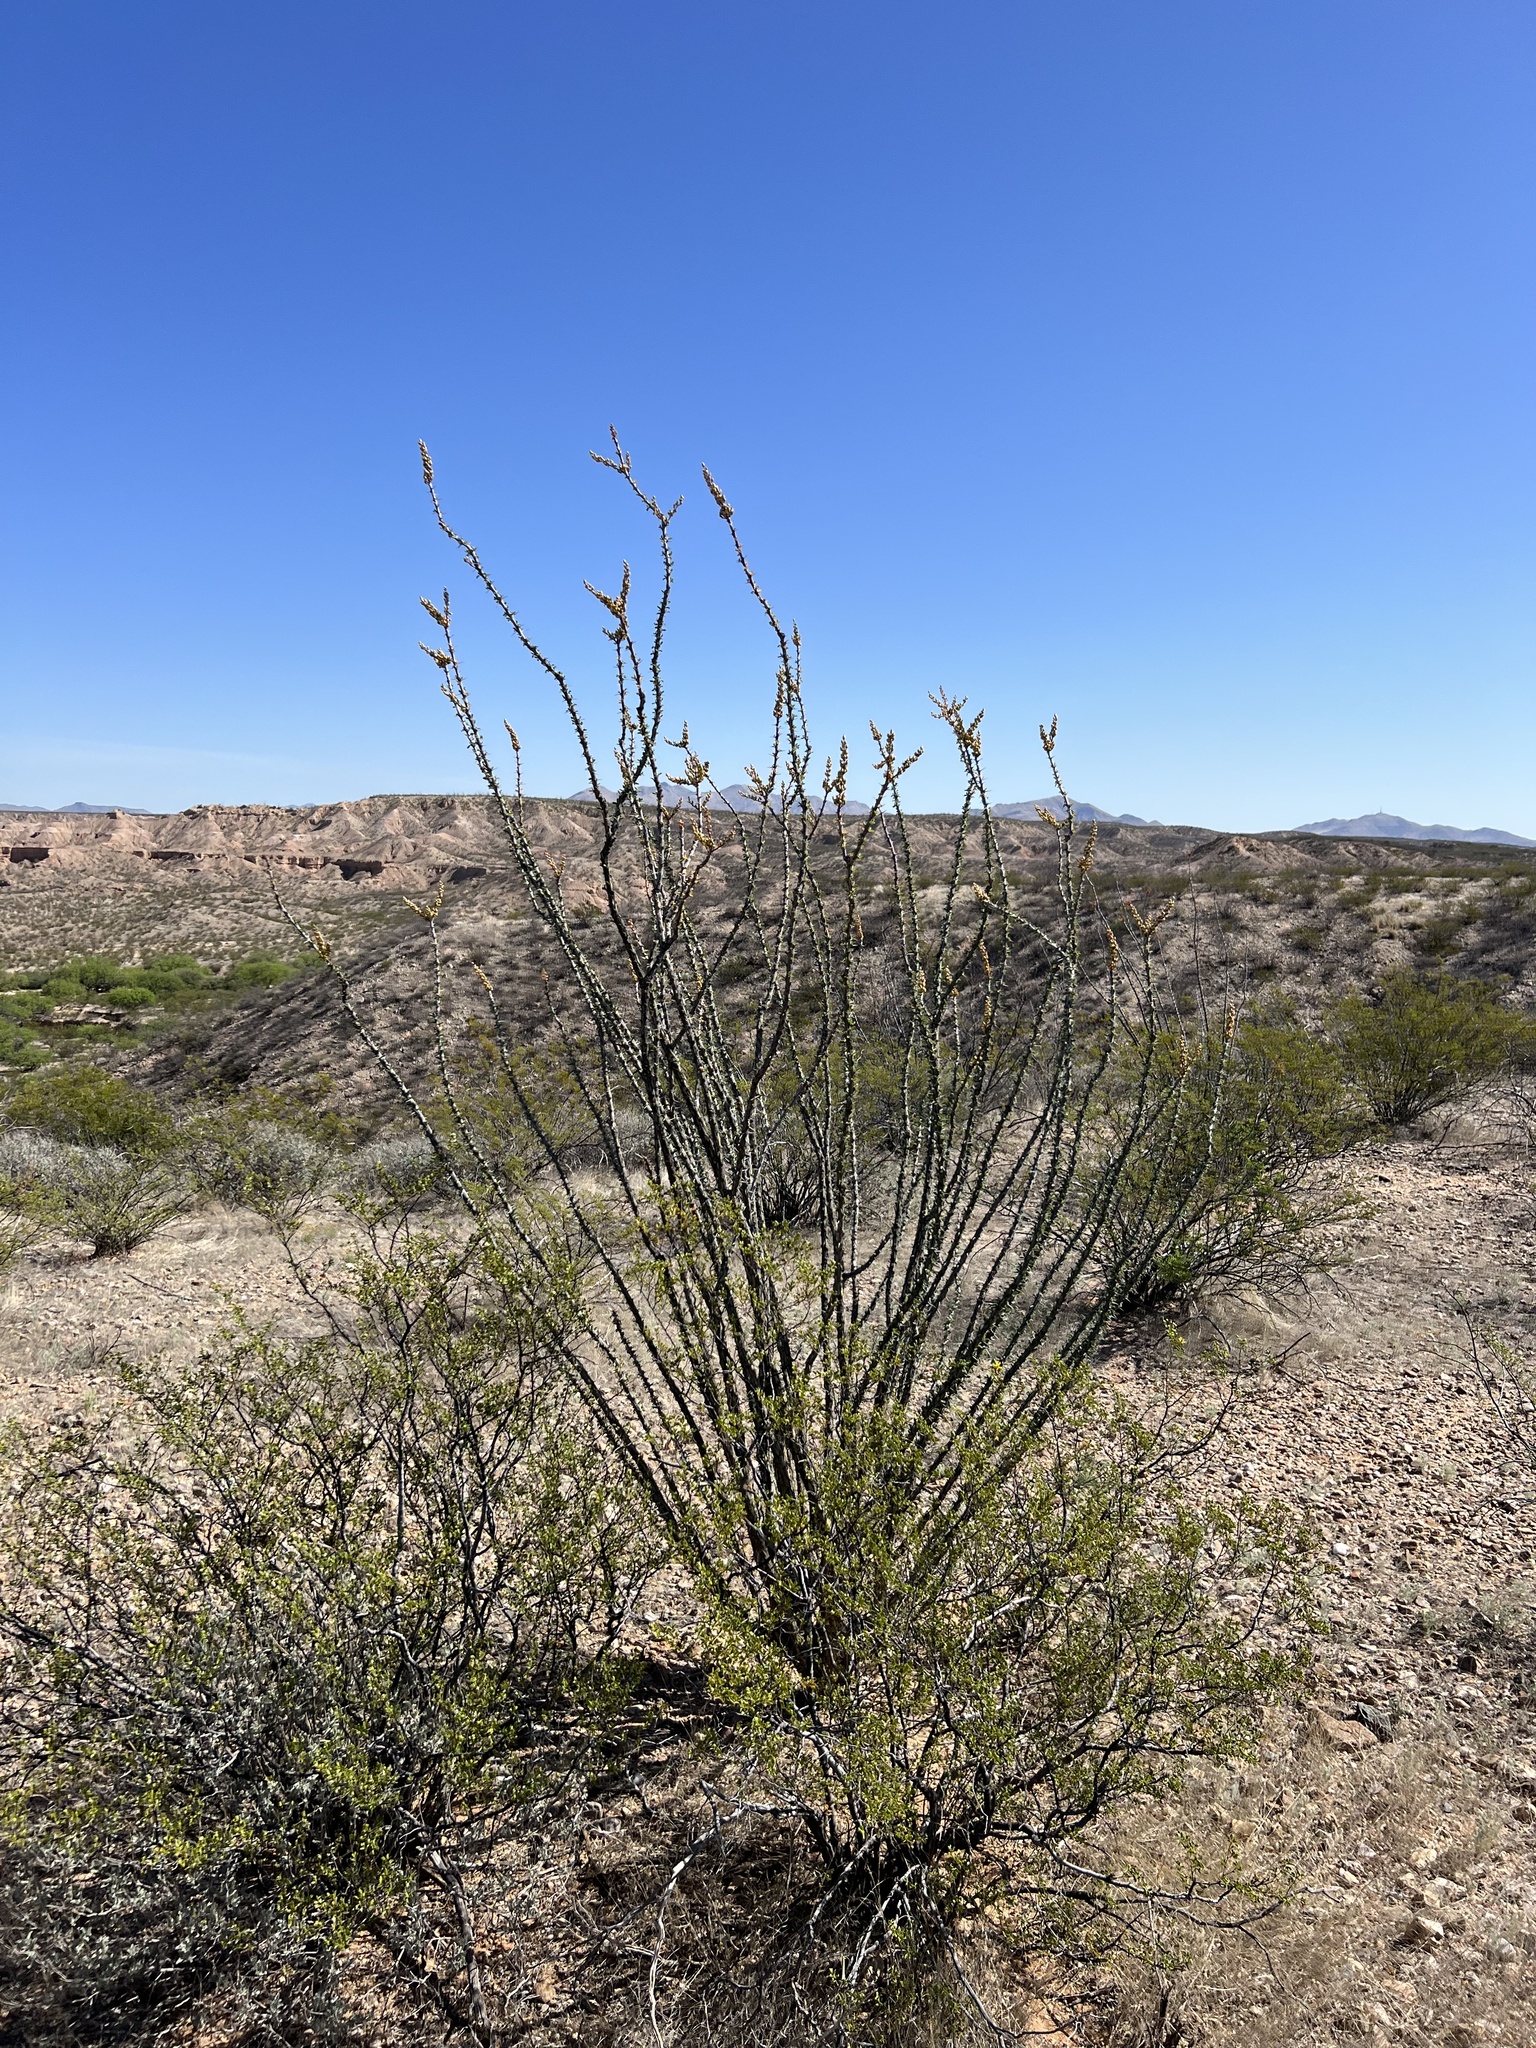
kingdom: Plantae
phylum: Tracheophyta
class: Magnoliopsida
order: Ericales
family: Fouquieriaceae
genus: Fouquieria
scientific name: Fouquieria splendens
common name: Vine-cactus
